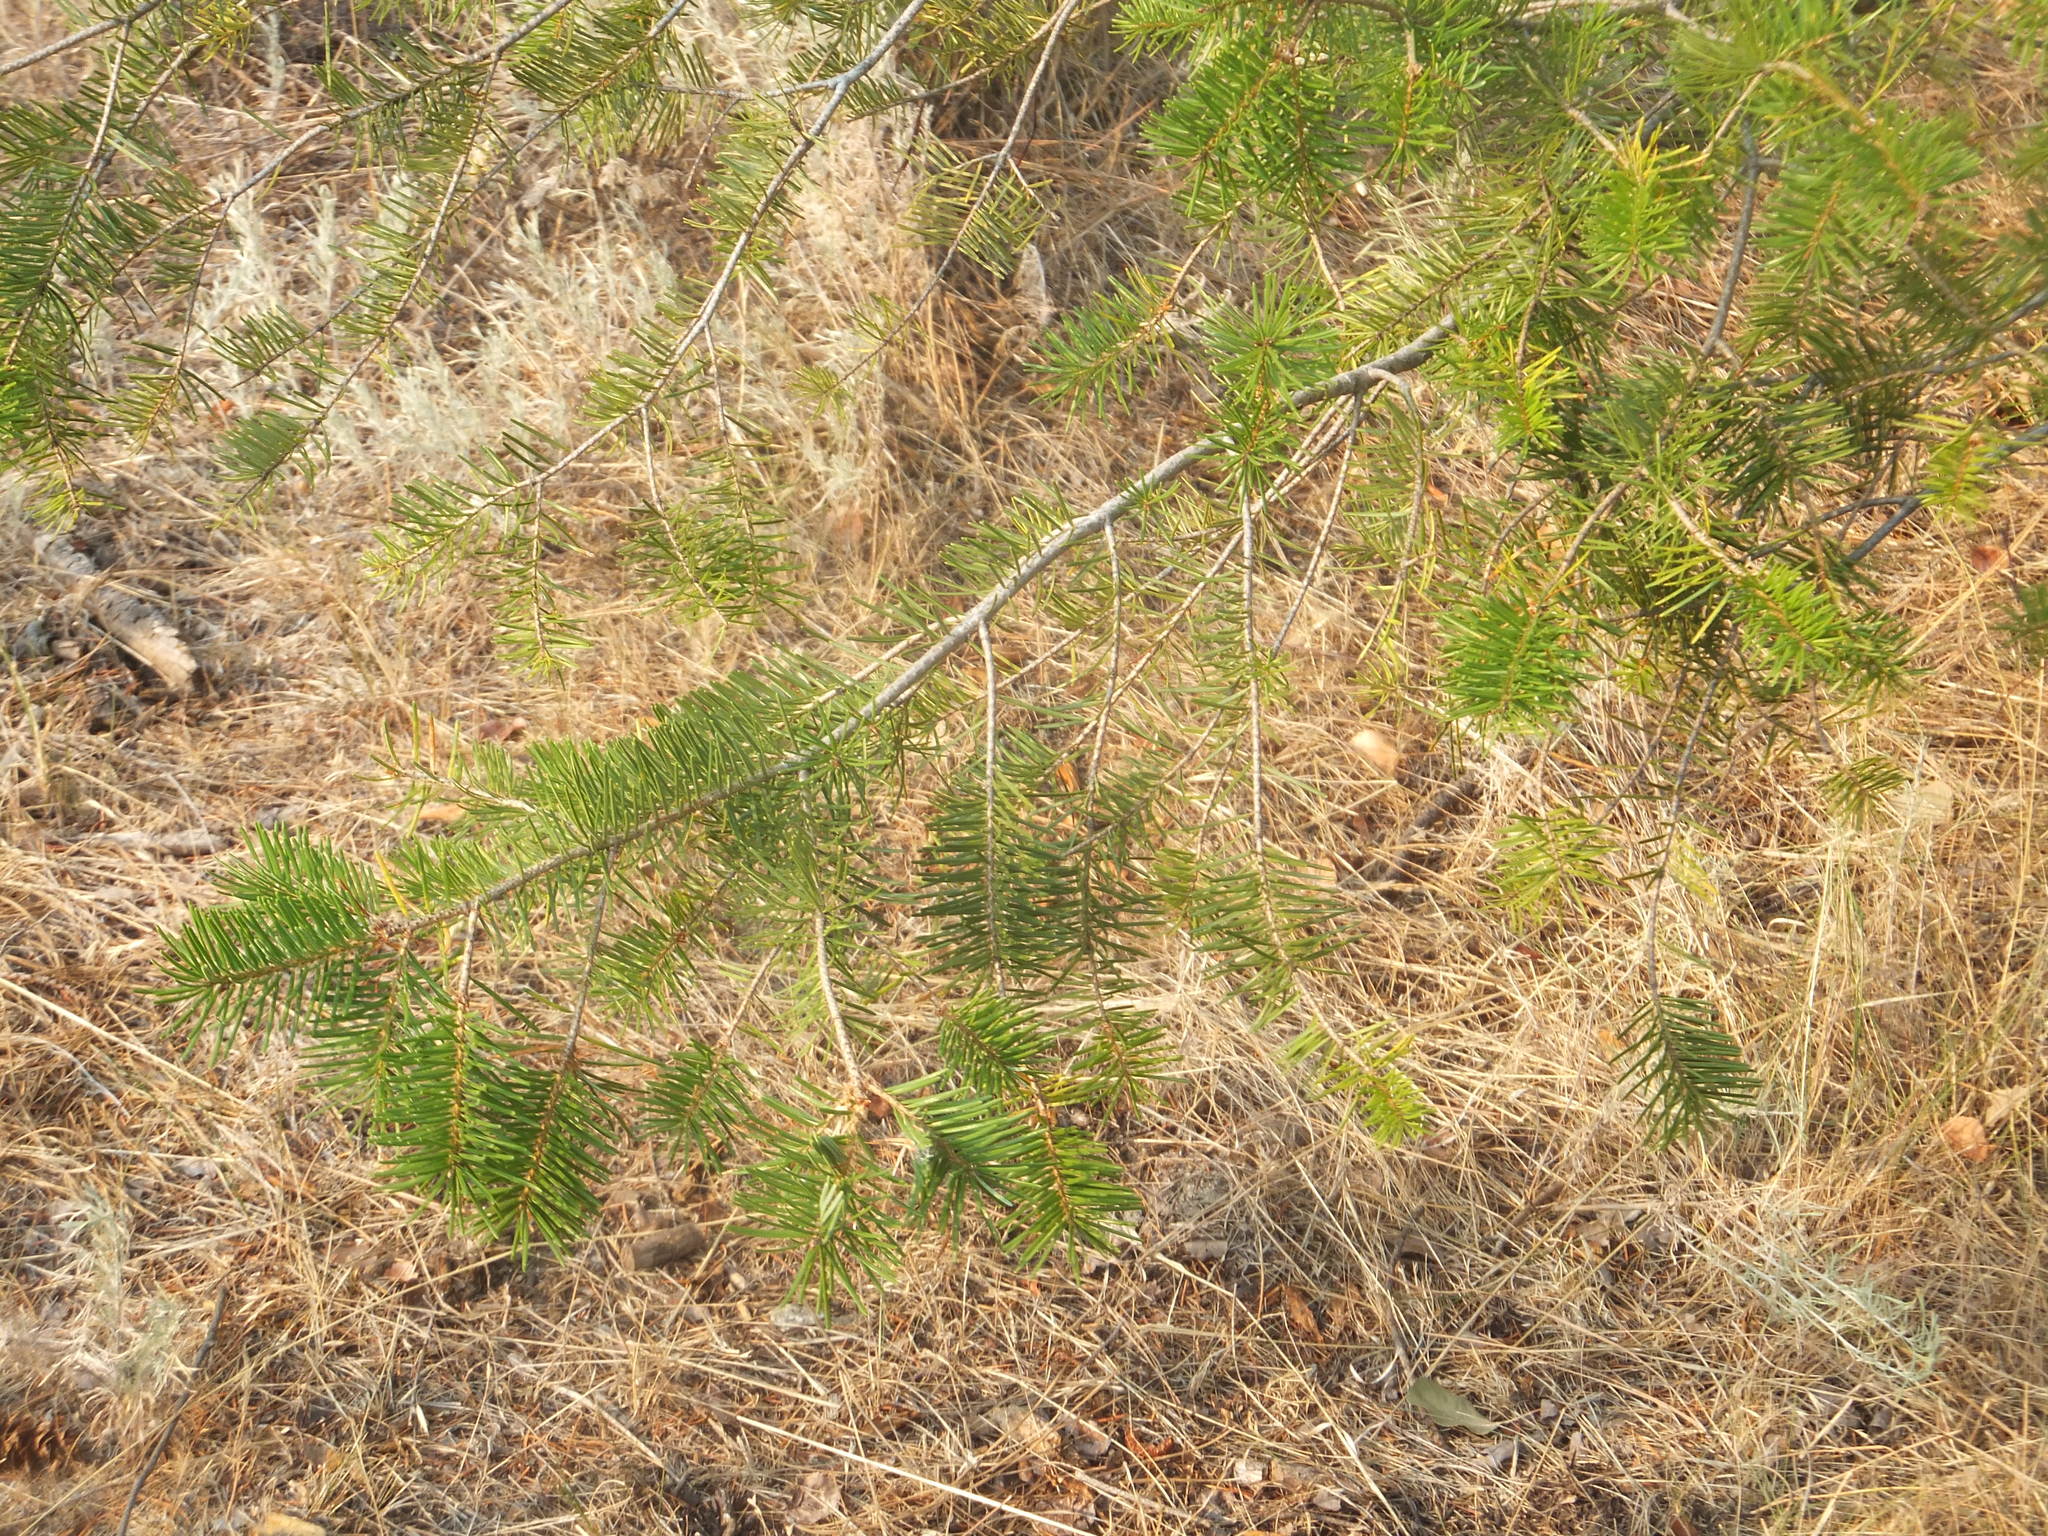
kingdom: Plantae
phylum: Tracheophyta
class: Pinopsida
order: Pinales
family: Pinaceae
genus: Pseudotsuga
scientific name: Pseudotsuga menziesii
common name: Douglas fir
